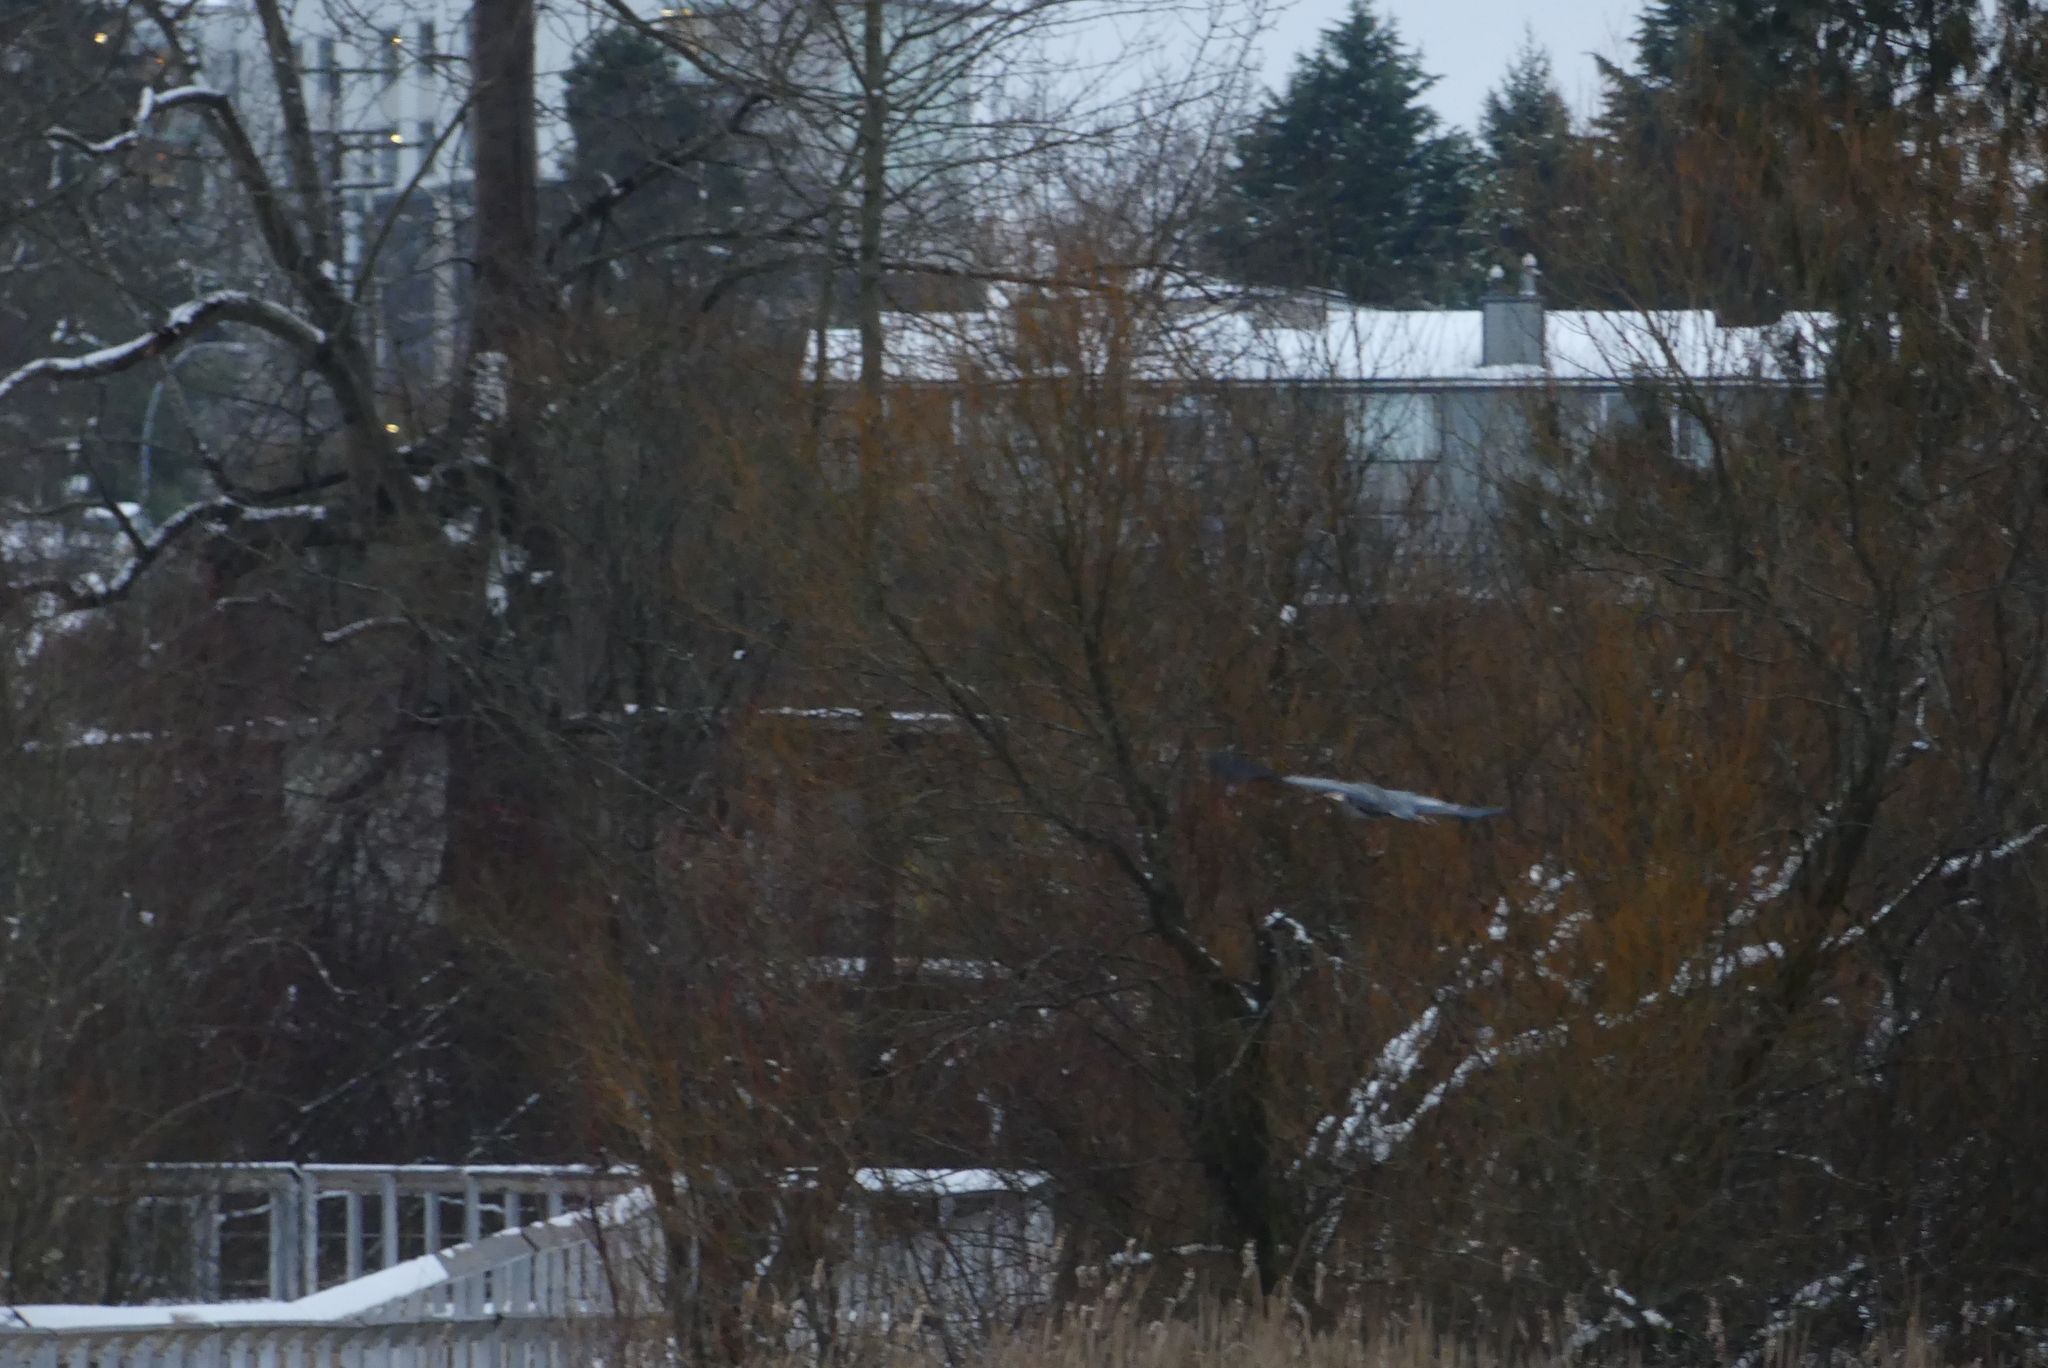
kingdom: Animalia
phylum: Chordata
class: Aves
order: Pelecaniformes
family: Ardeidae
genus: Ardea
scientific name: Ardea herodias
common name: Great blue heron
